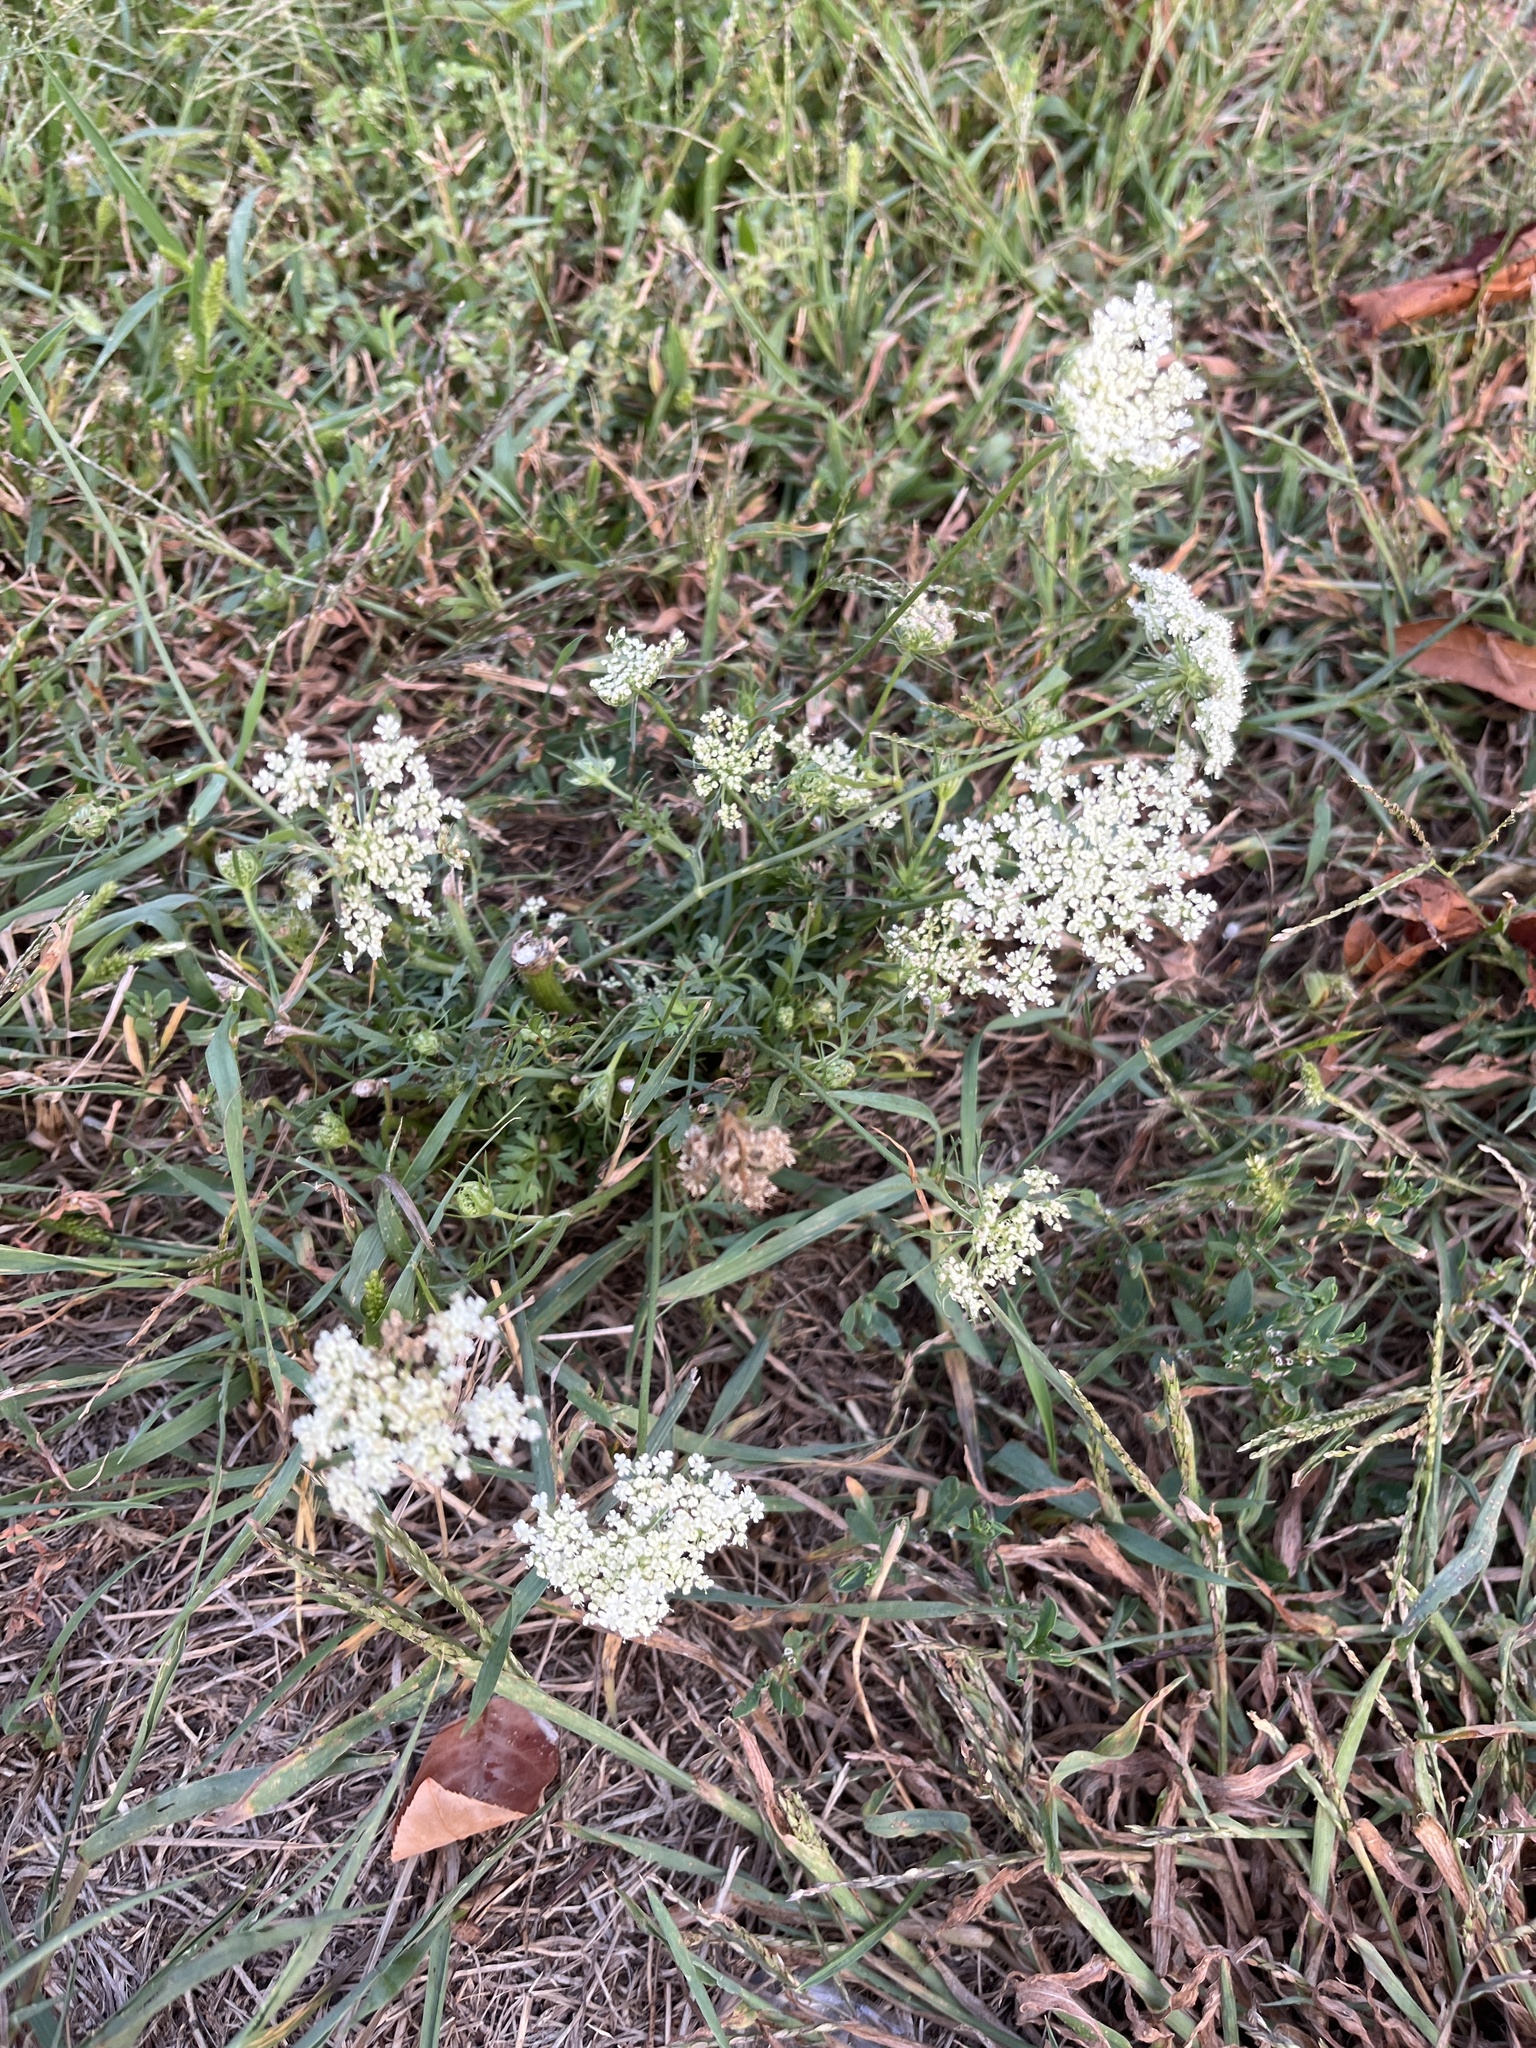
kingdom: Plantae
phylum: Tracheophyta
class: Magnoliopsida
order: Apiales
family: Apiaceae
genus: Daucus
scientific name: Daucus carota
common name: Wild carrot
